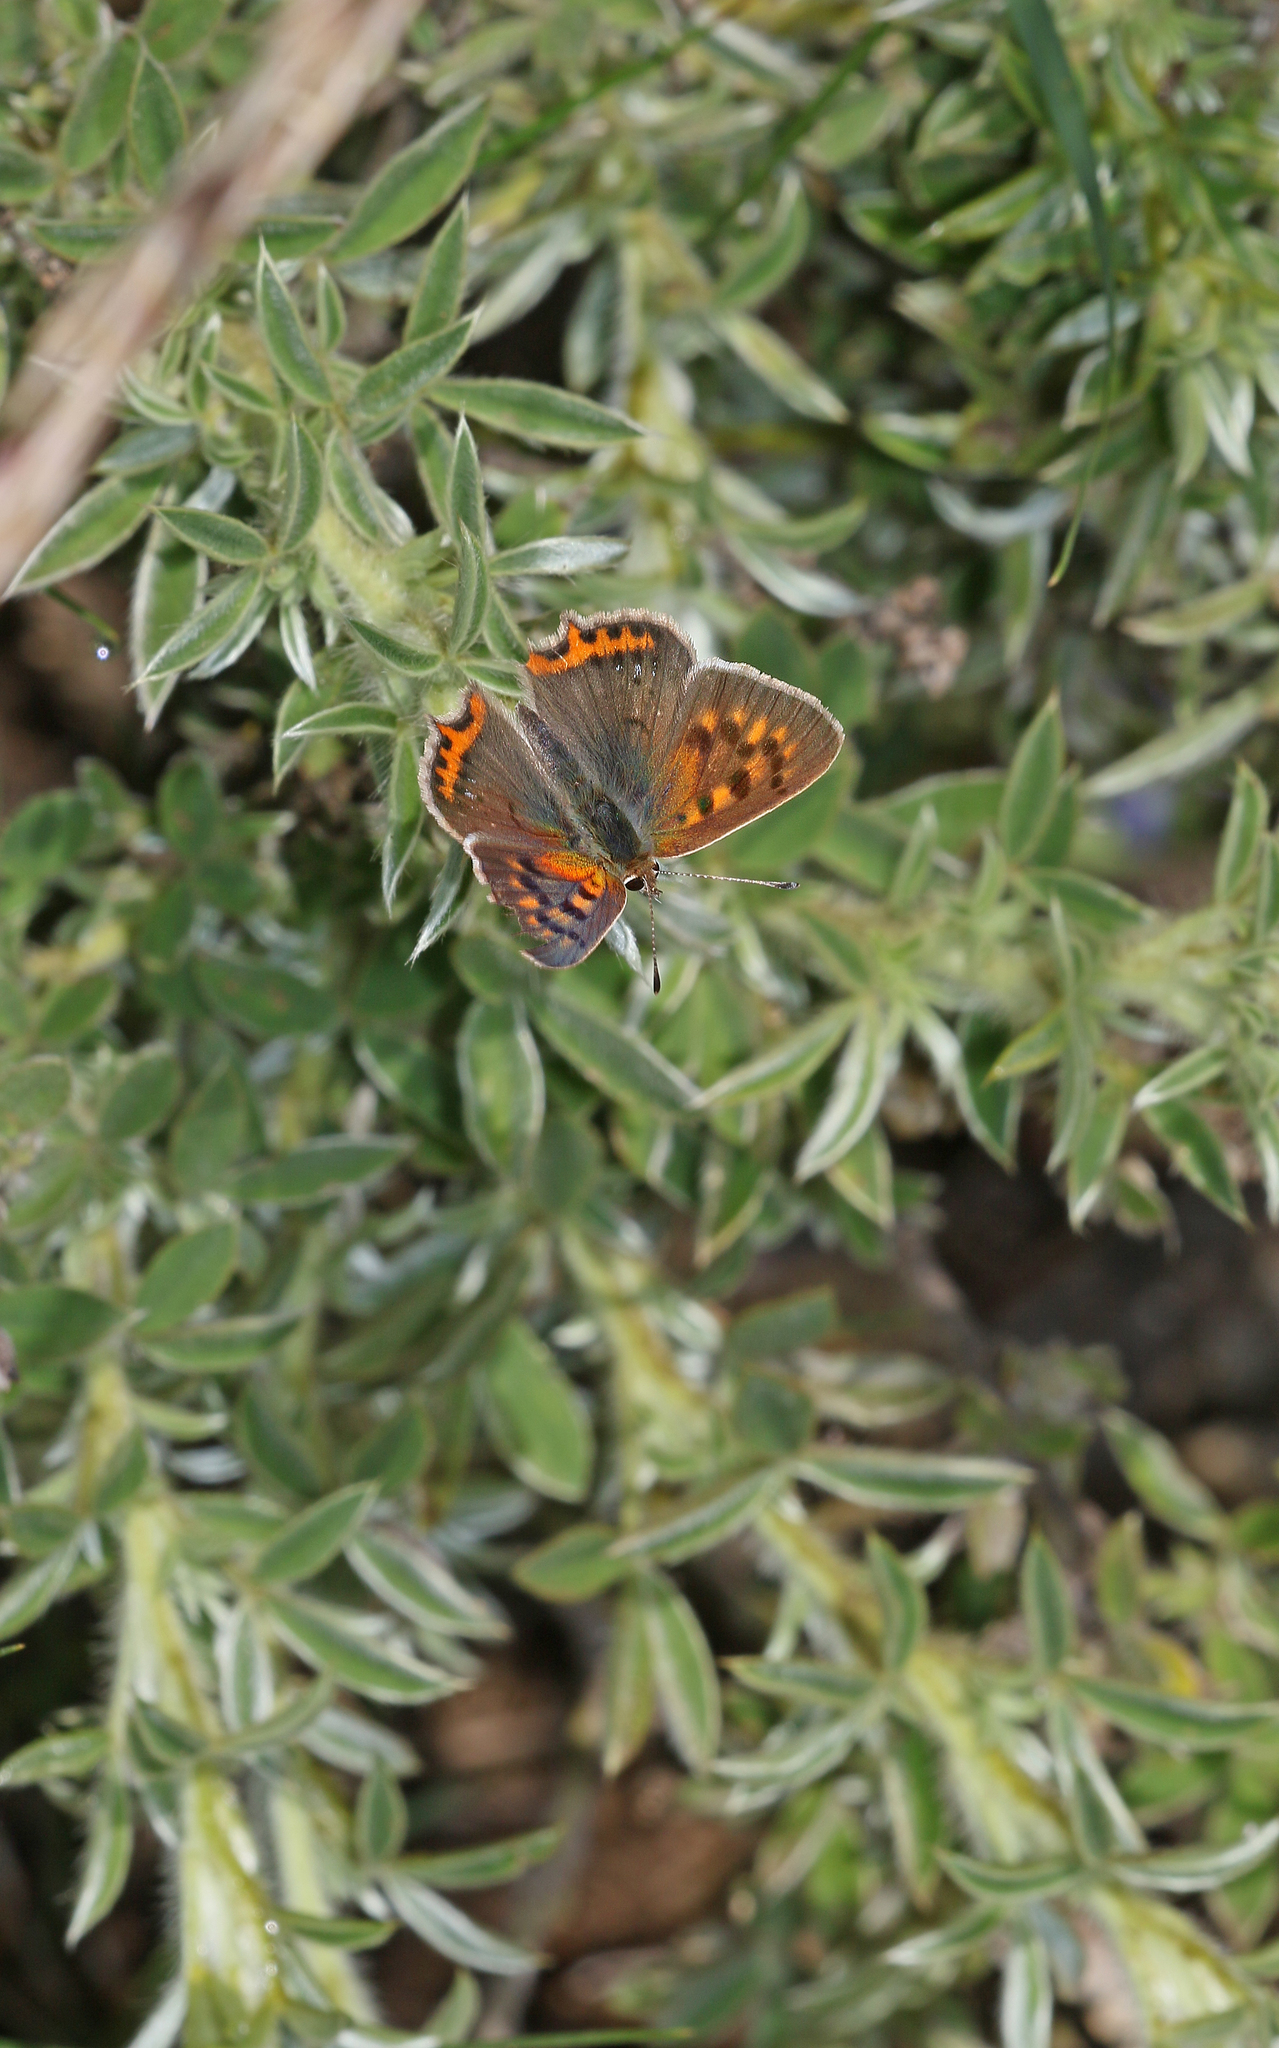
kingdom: Animalia
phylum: Arthropoda
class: Insecta
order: Lepidoptera
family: Lycaenidae
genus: Lycaena
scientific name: Lycaena phlaeas
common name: Small copper
